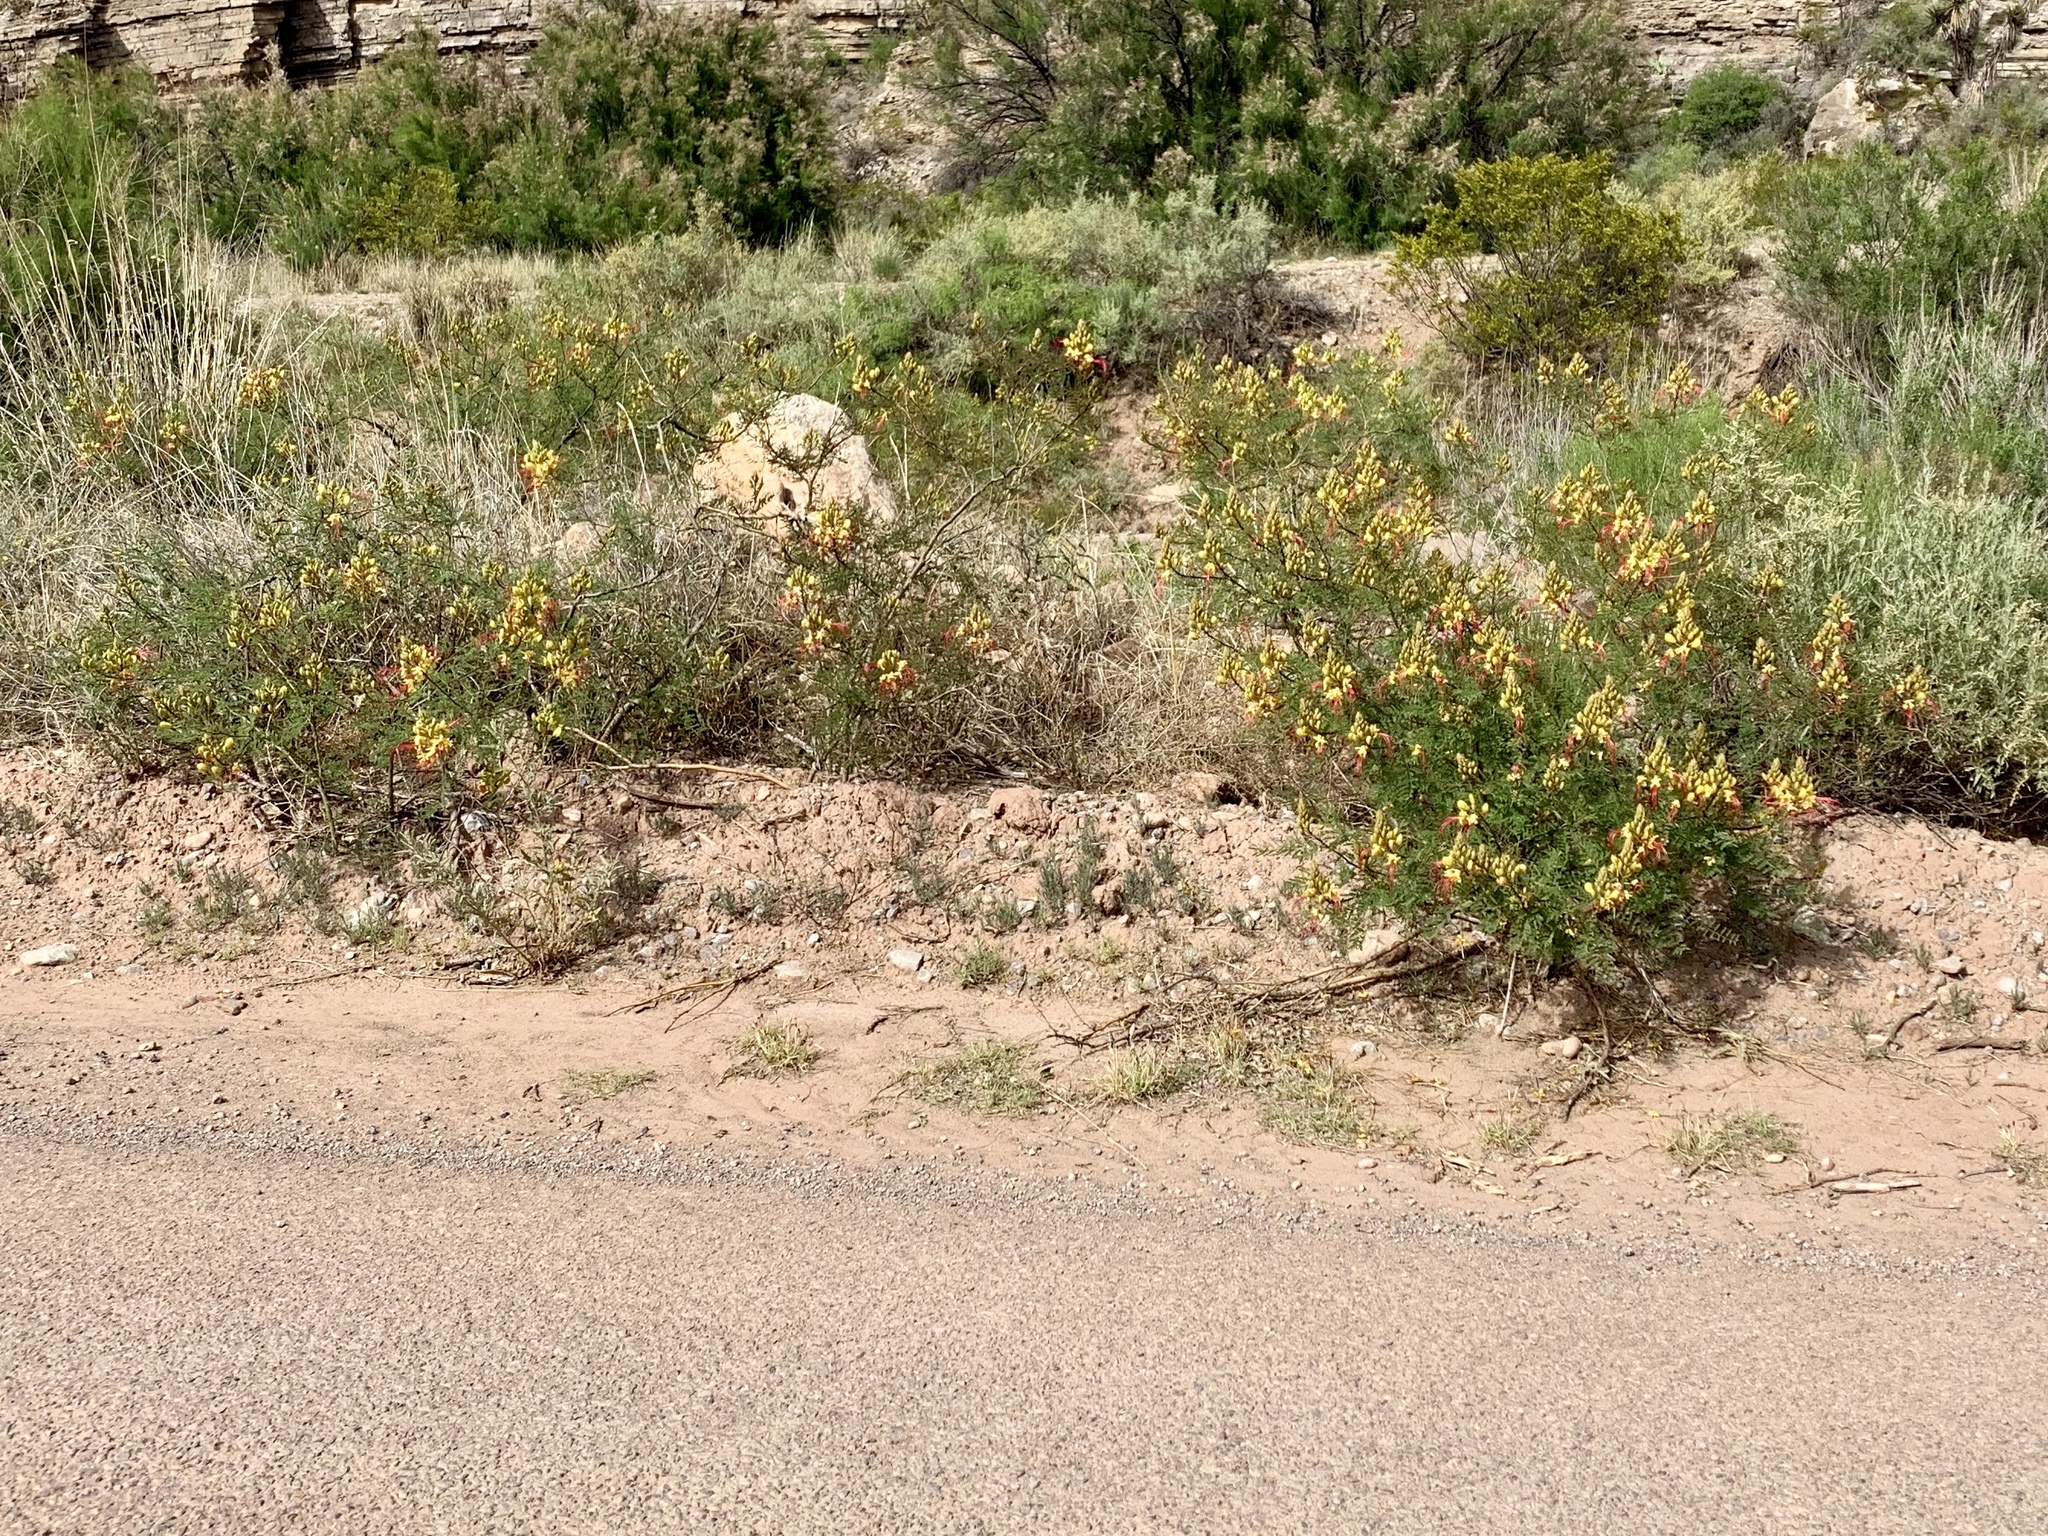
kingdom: Plantae
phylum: Tracheophyta
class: Magnoliopsida
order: Fabales
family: Fabaceae
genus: Erythrostemon
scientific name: Erythrostemon gilliesii
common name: Bird-of-paradise shrub
